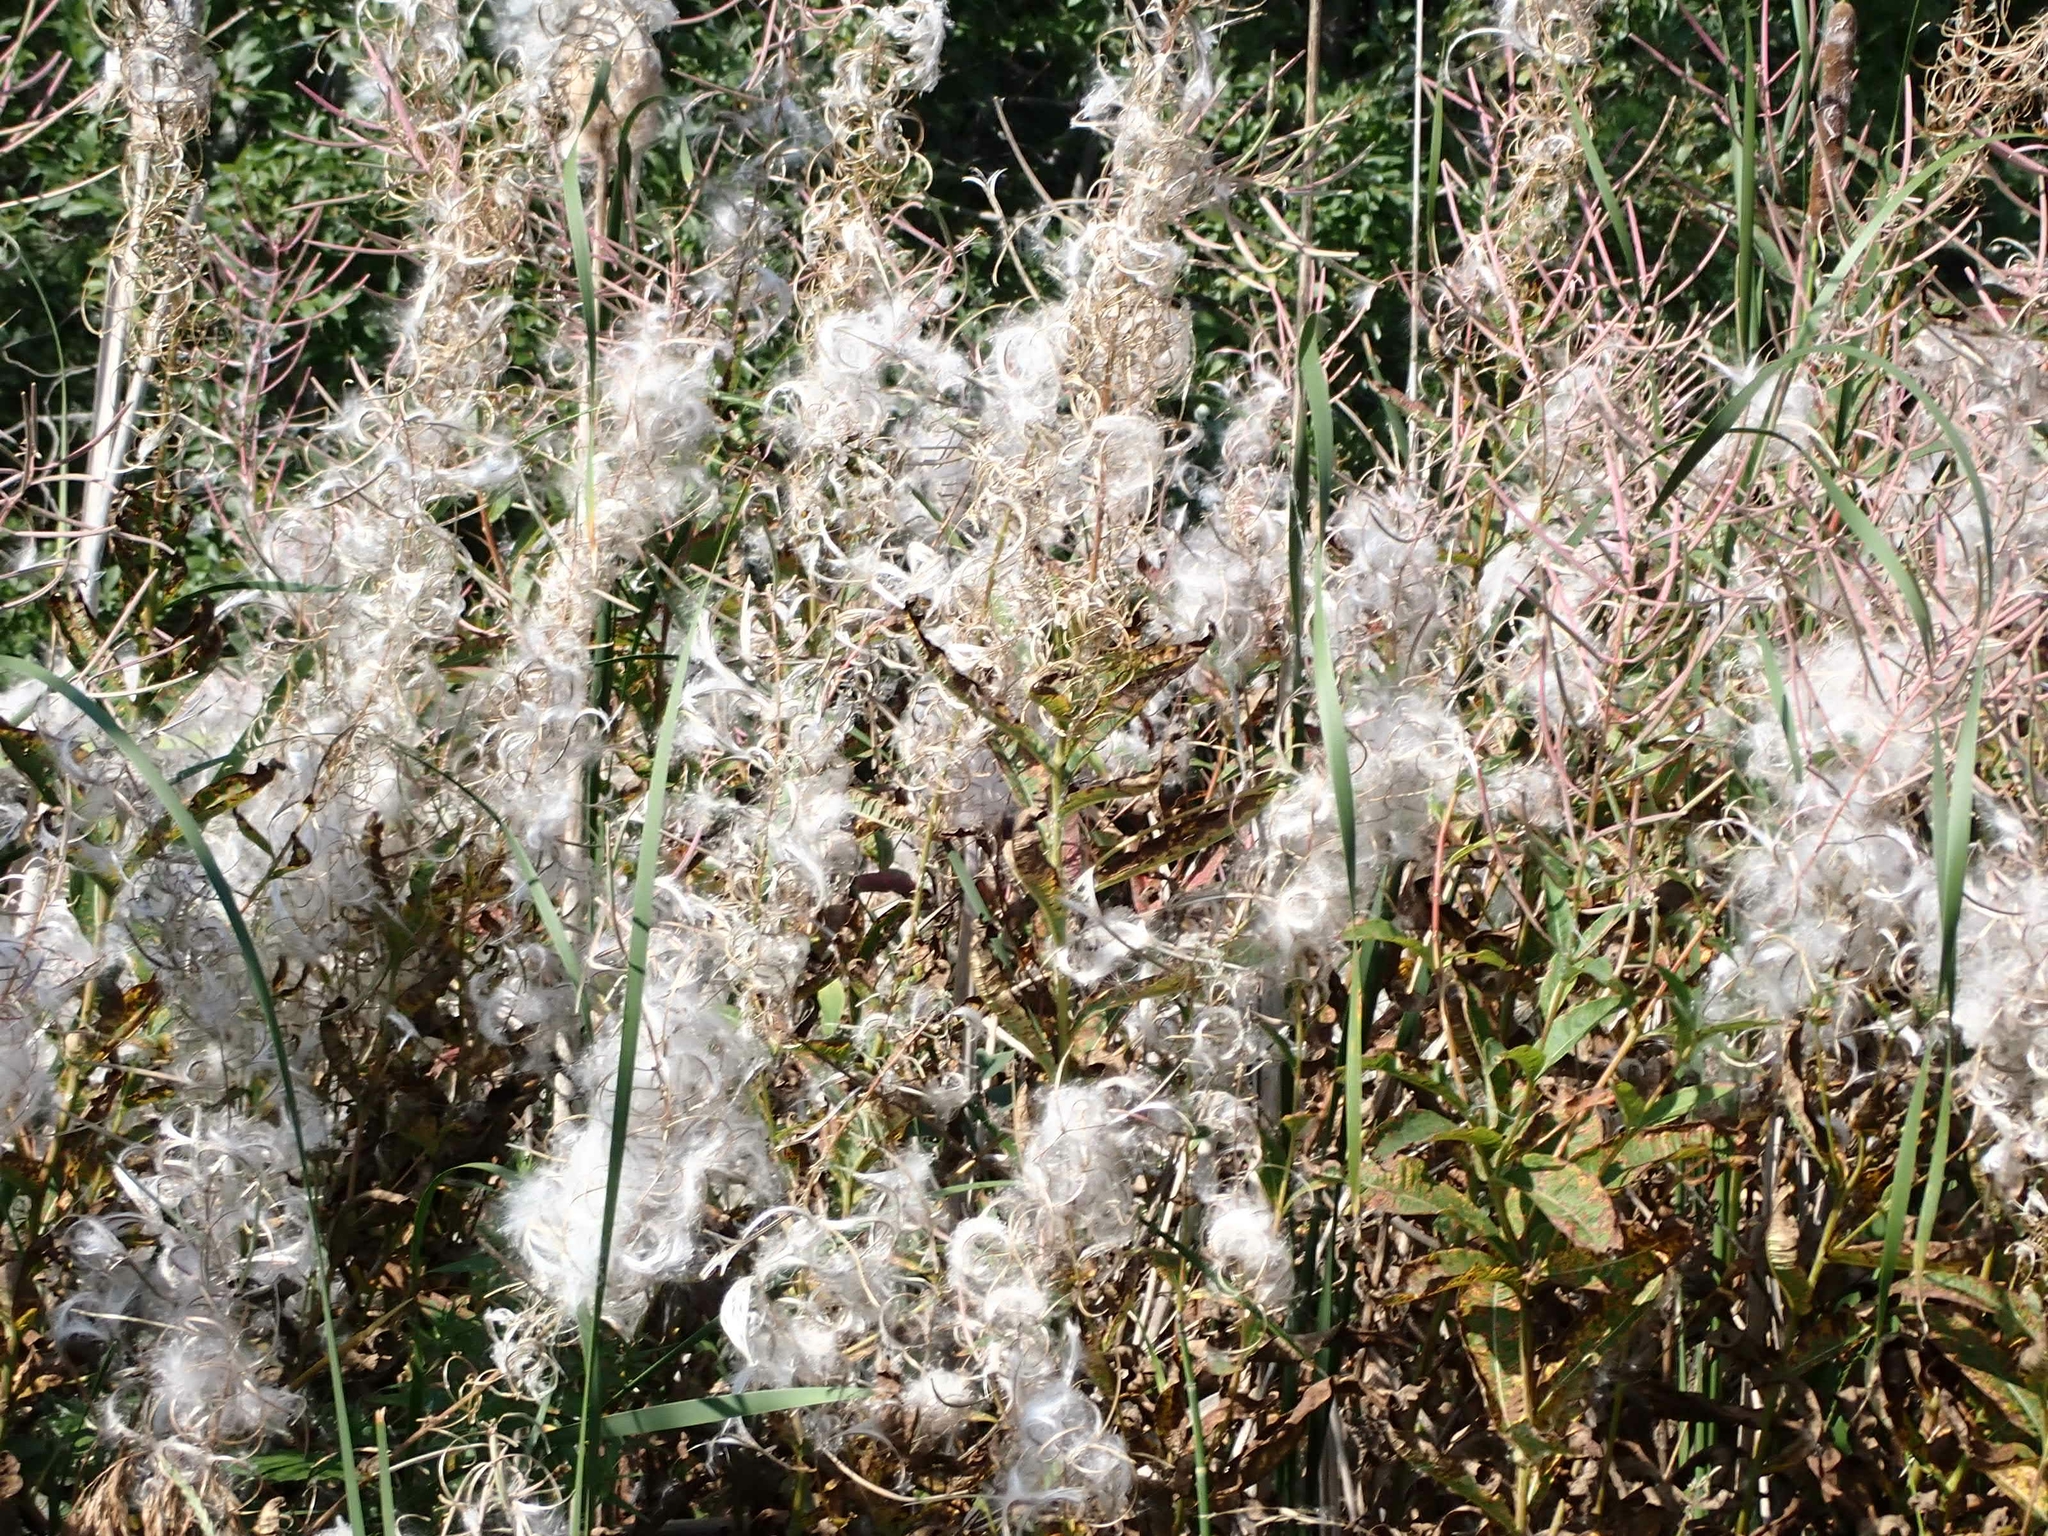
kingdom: Plantae
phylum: Tracheophyta
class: Magnoliopsida
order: Myrtales
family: Onagraceae
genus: Chamaenerion
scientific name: Chamaenerion angustifolium
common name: Fireweed
